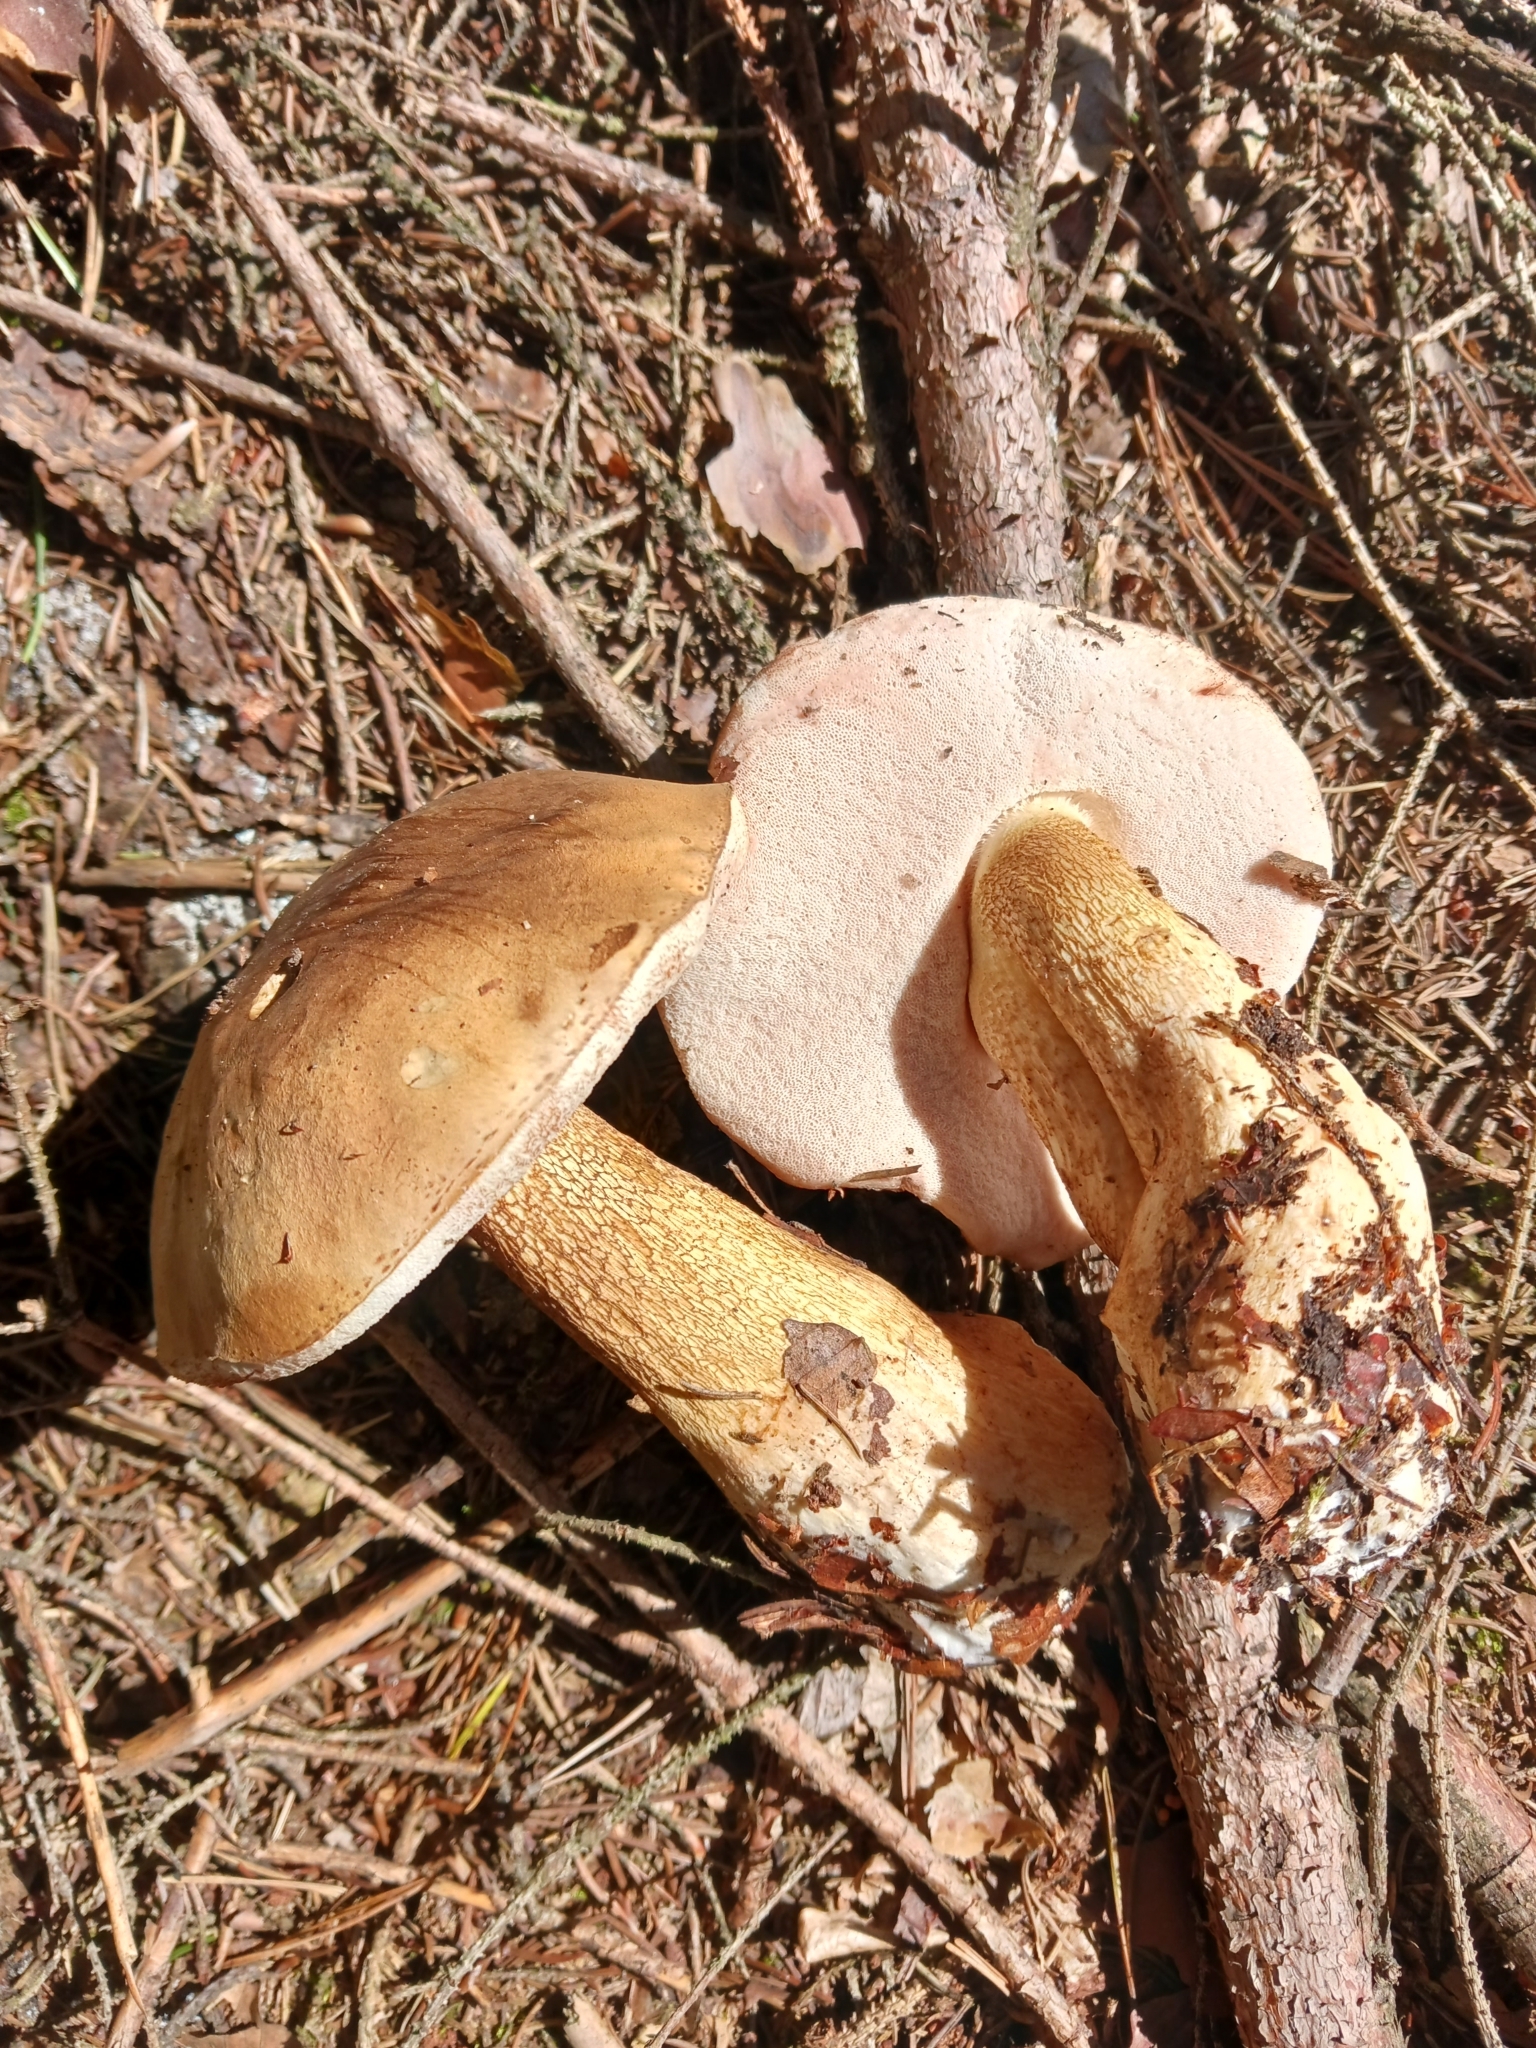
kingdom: Fungi
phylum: Basidiomycota
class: Agaricomycetes
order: Boletales
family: Boletaceae
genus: Tylopilus
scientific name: Tylopilus felleus
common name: Bitter bolete
